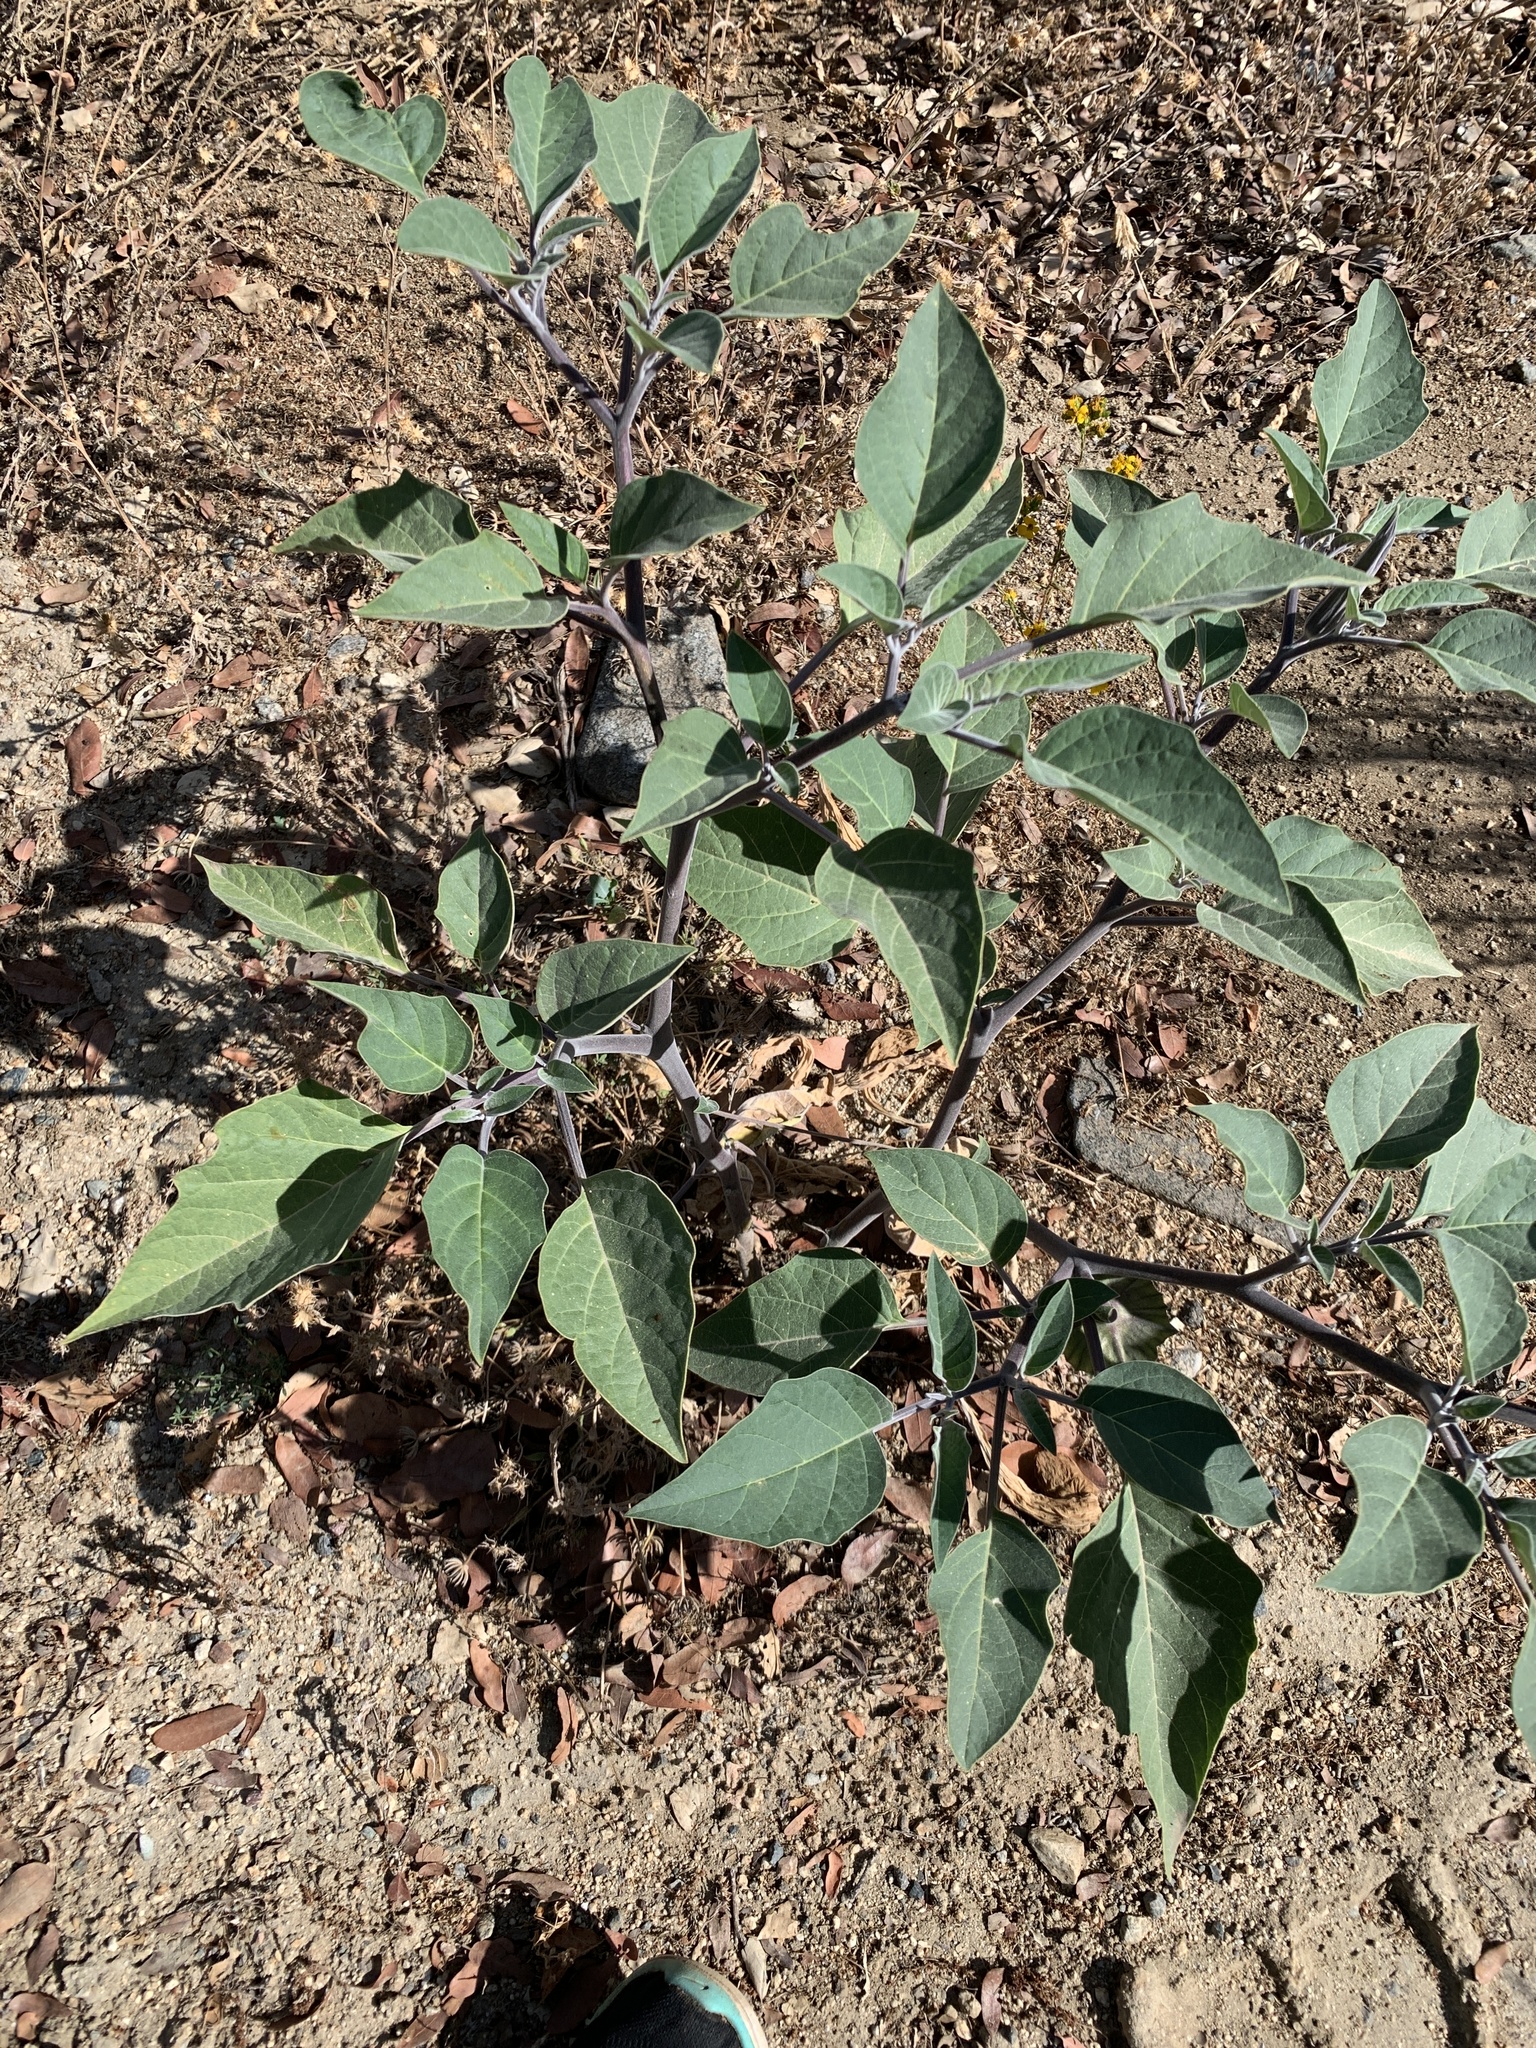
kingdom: Plantae
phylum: Tracheophyta
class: Magnoliopsida
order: Solanales
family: Solanaceae
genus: Datura
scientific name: Datura wrightii
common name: Sacred thorn-apple
